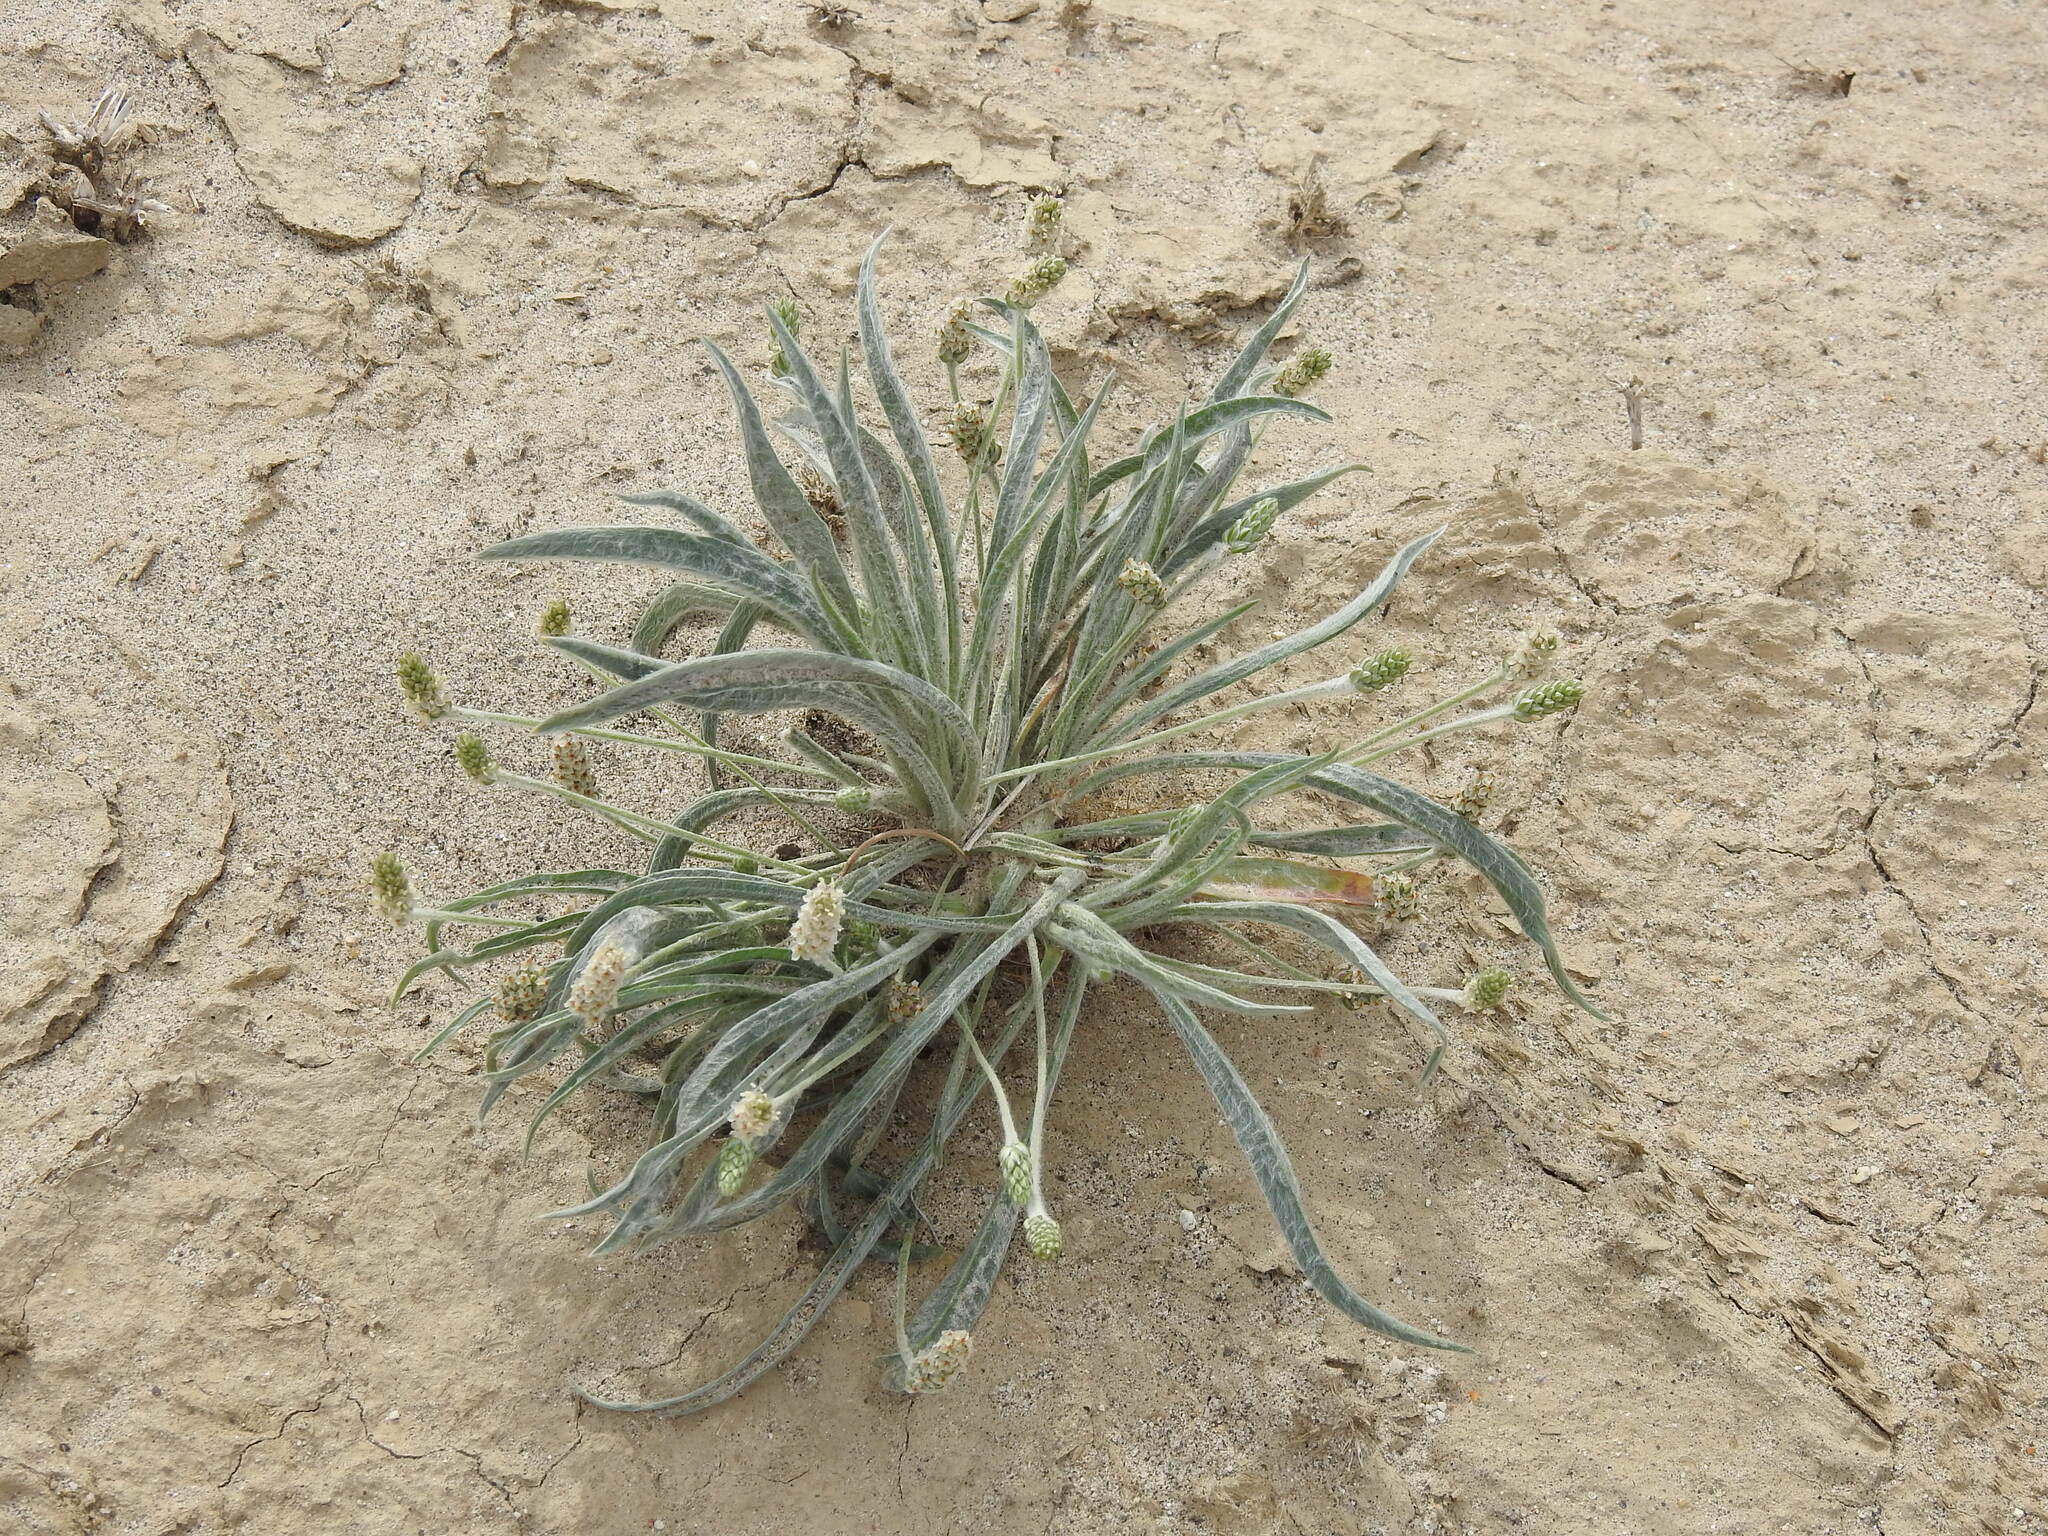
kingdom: Plantae
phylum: Tracheophyta
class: Magnoliopsida
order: Lamiales
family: Plantaginaceae
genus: Plantago
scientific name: Plantago ovata
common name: Blond plantain
